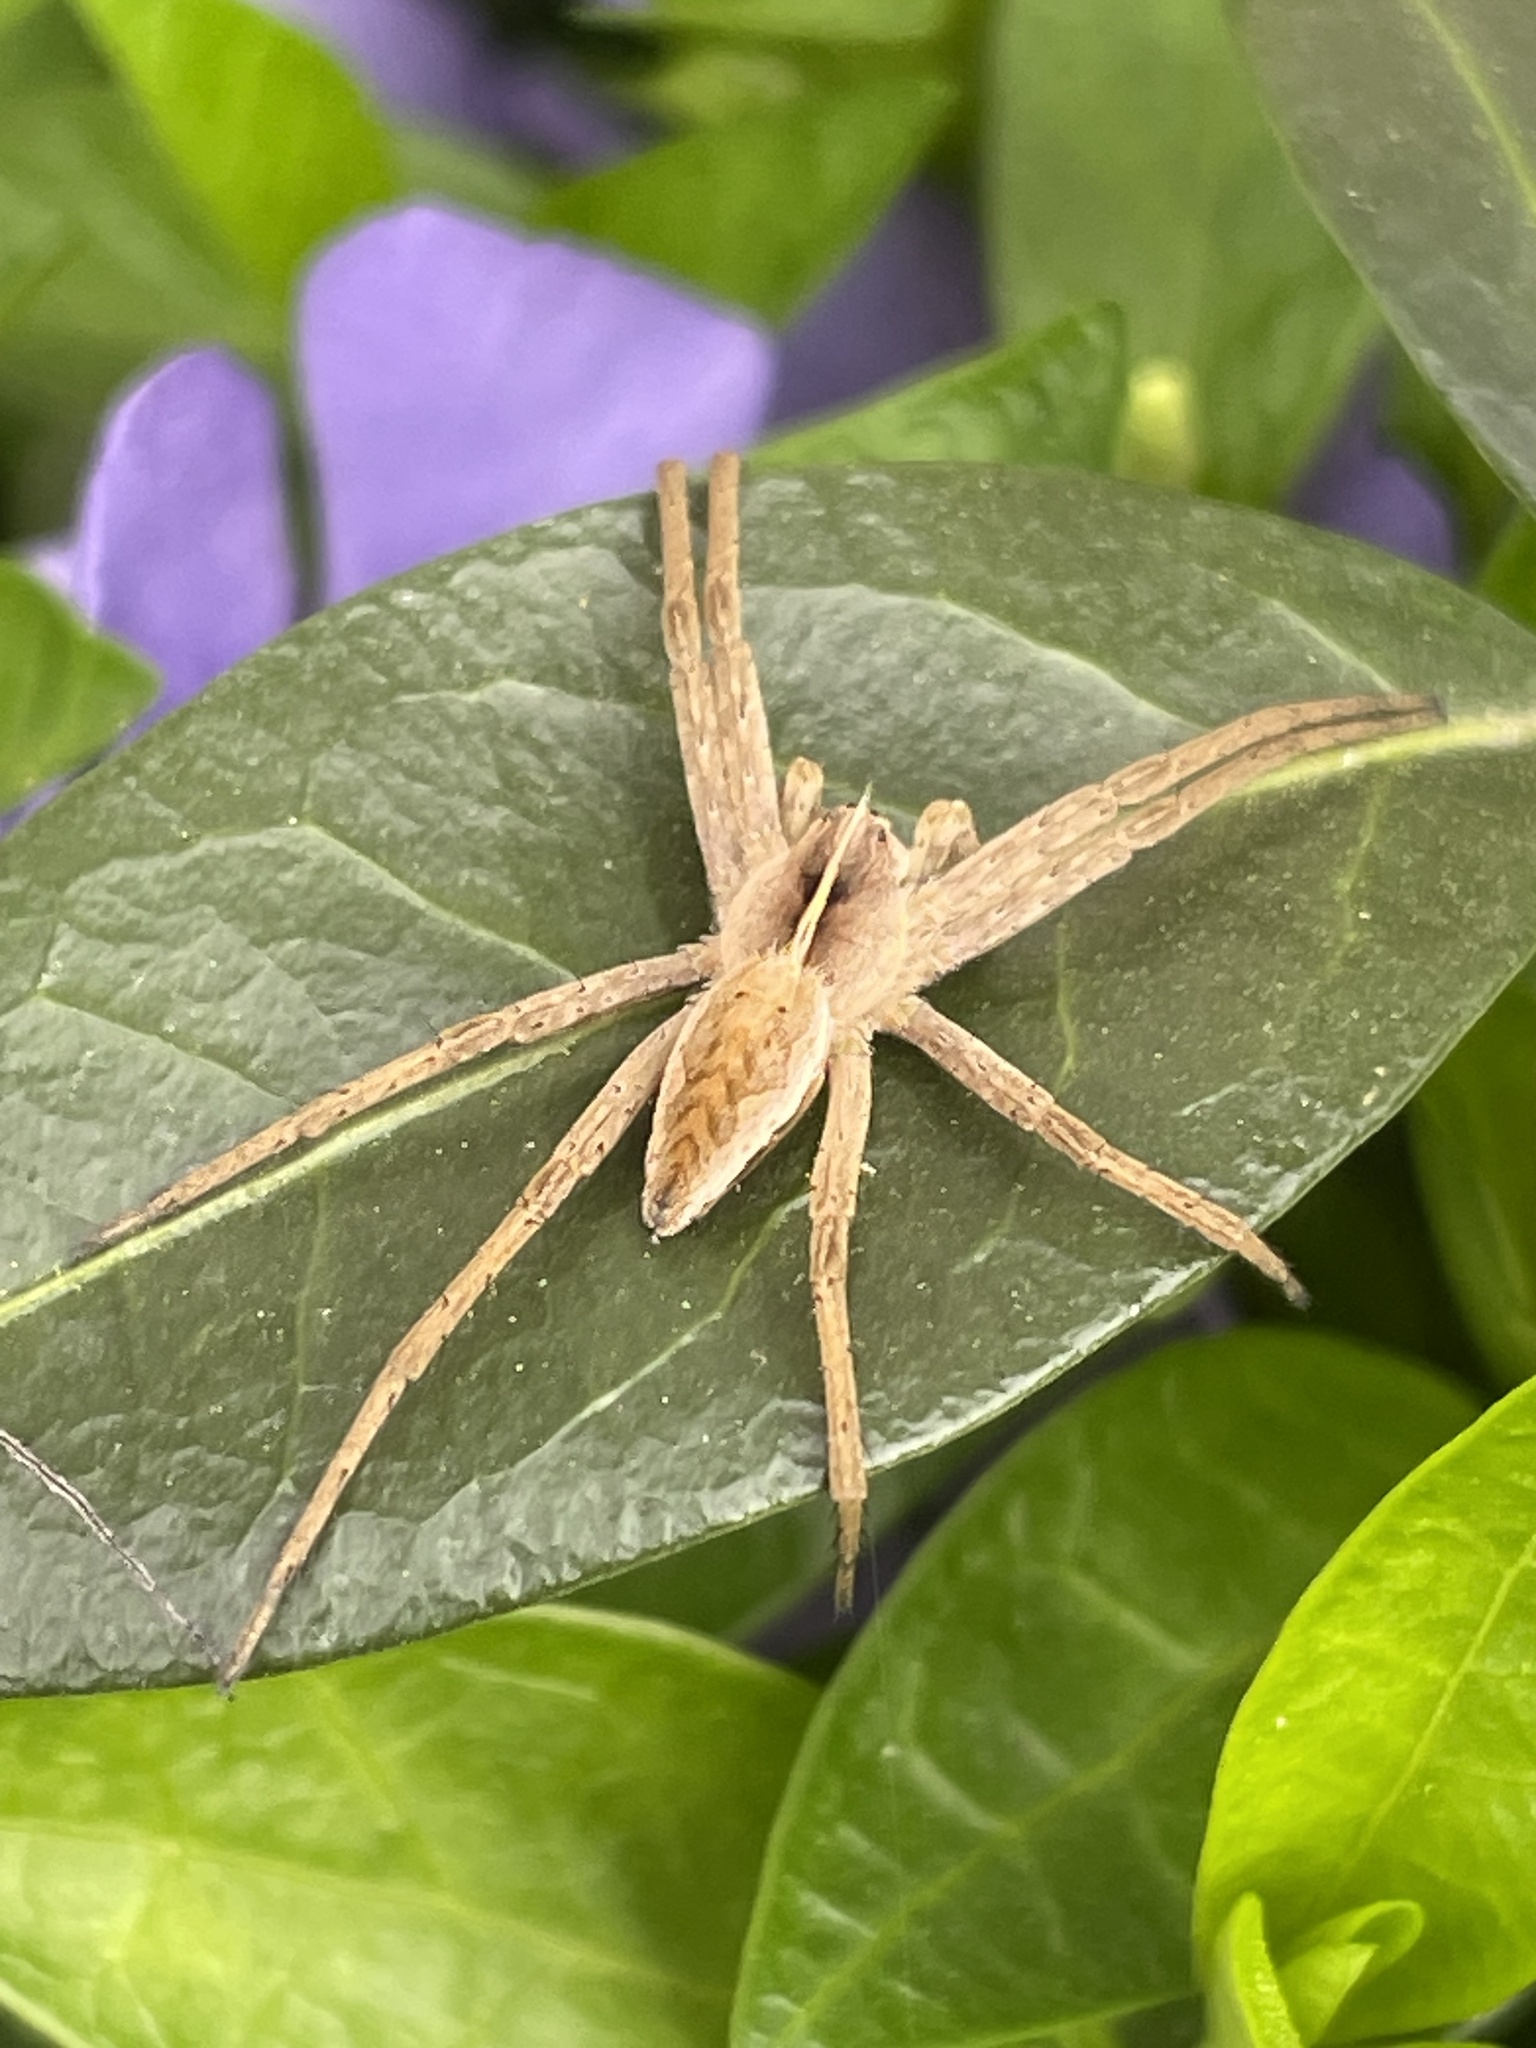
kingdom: Animalia
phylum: Arthropoda
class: Arachnida
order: Araneae
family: Pisauridae
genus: Pisaura
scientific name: Pisaura mirabilis
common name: Tent spider
